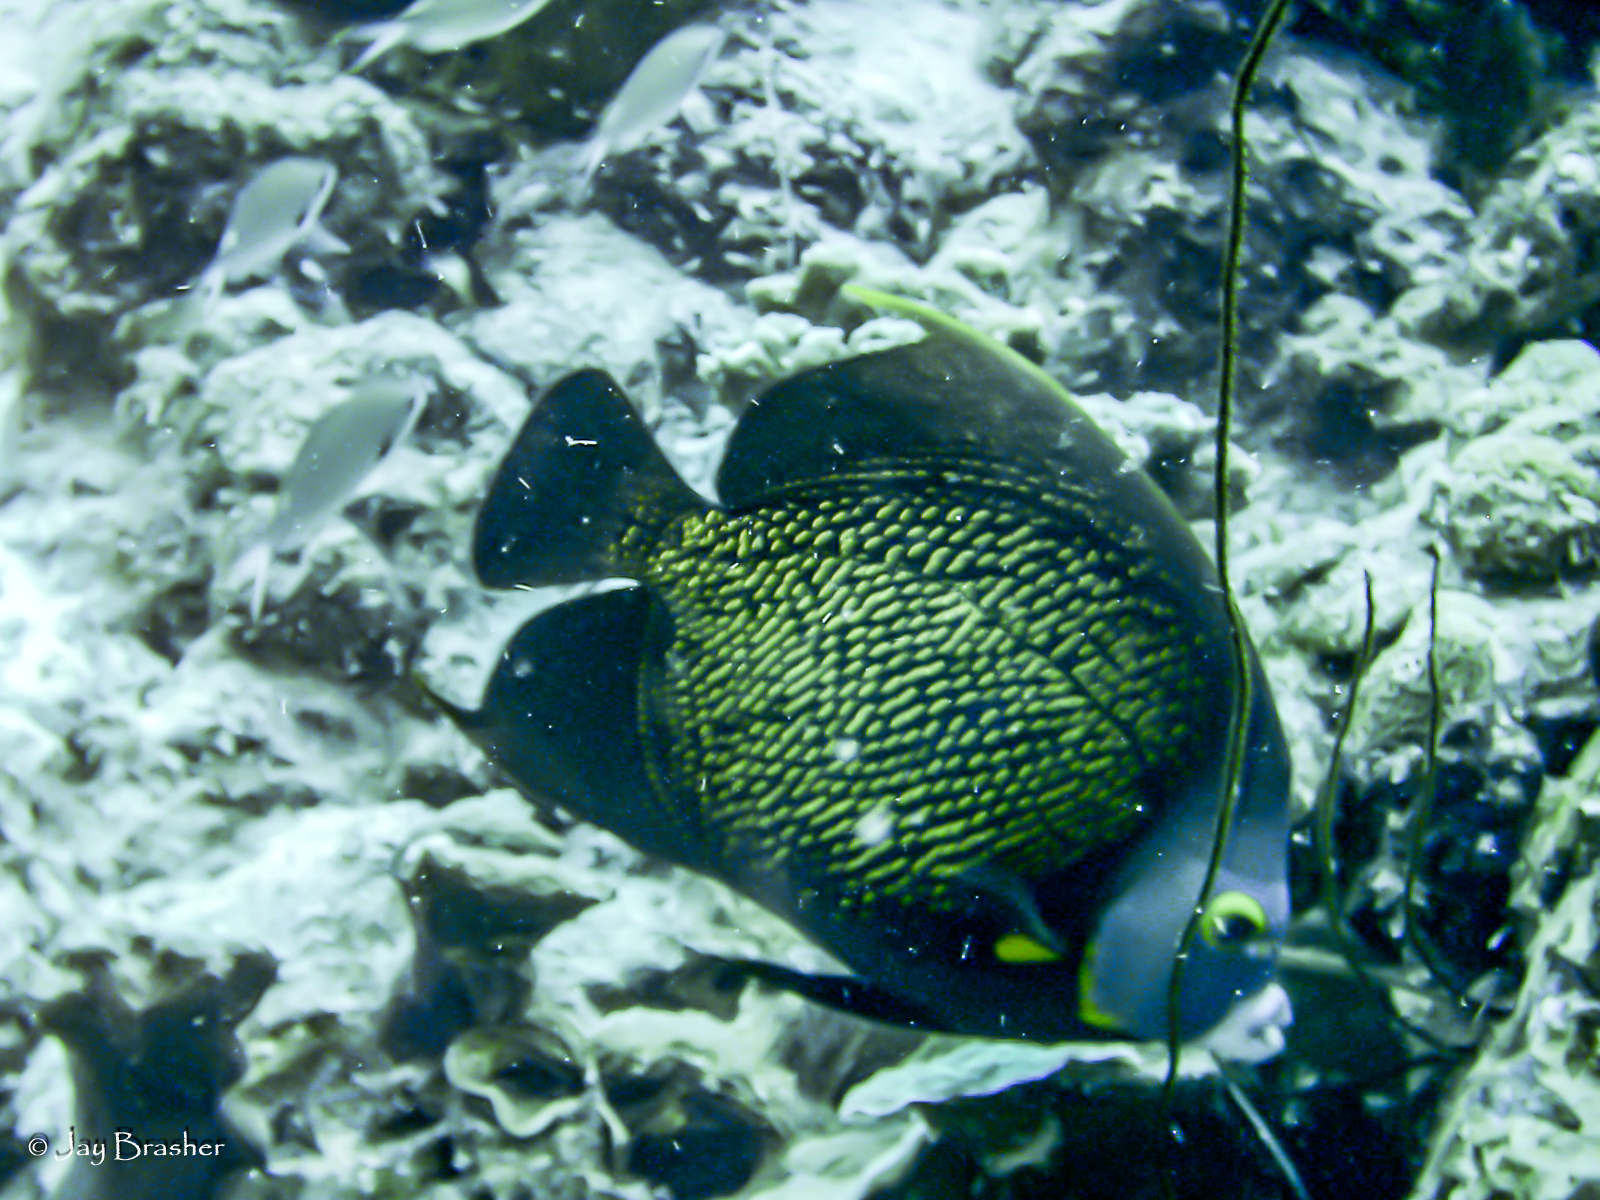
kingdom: Animalia
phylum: Chordata
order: Perciformes
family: Pomacanthidae
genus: Pomacanthus
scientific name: Pomacanthus paru
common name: French angelfish
